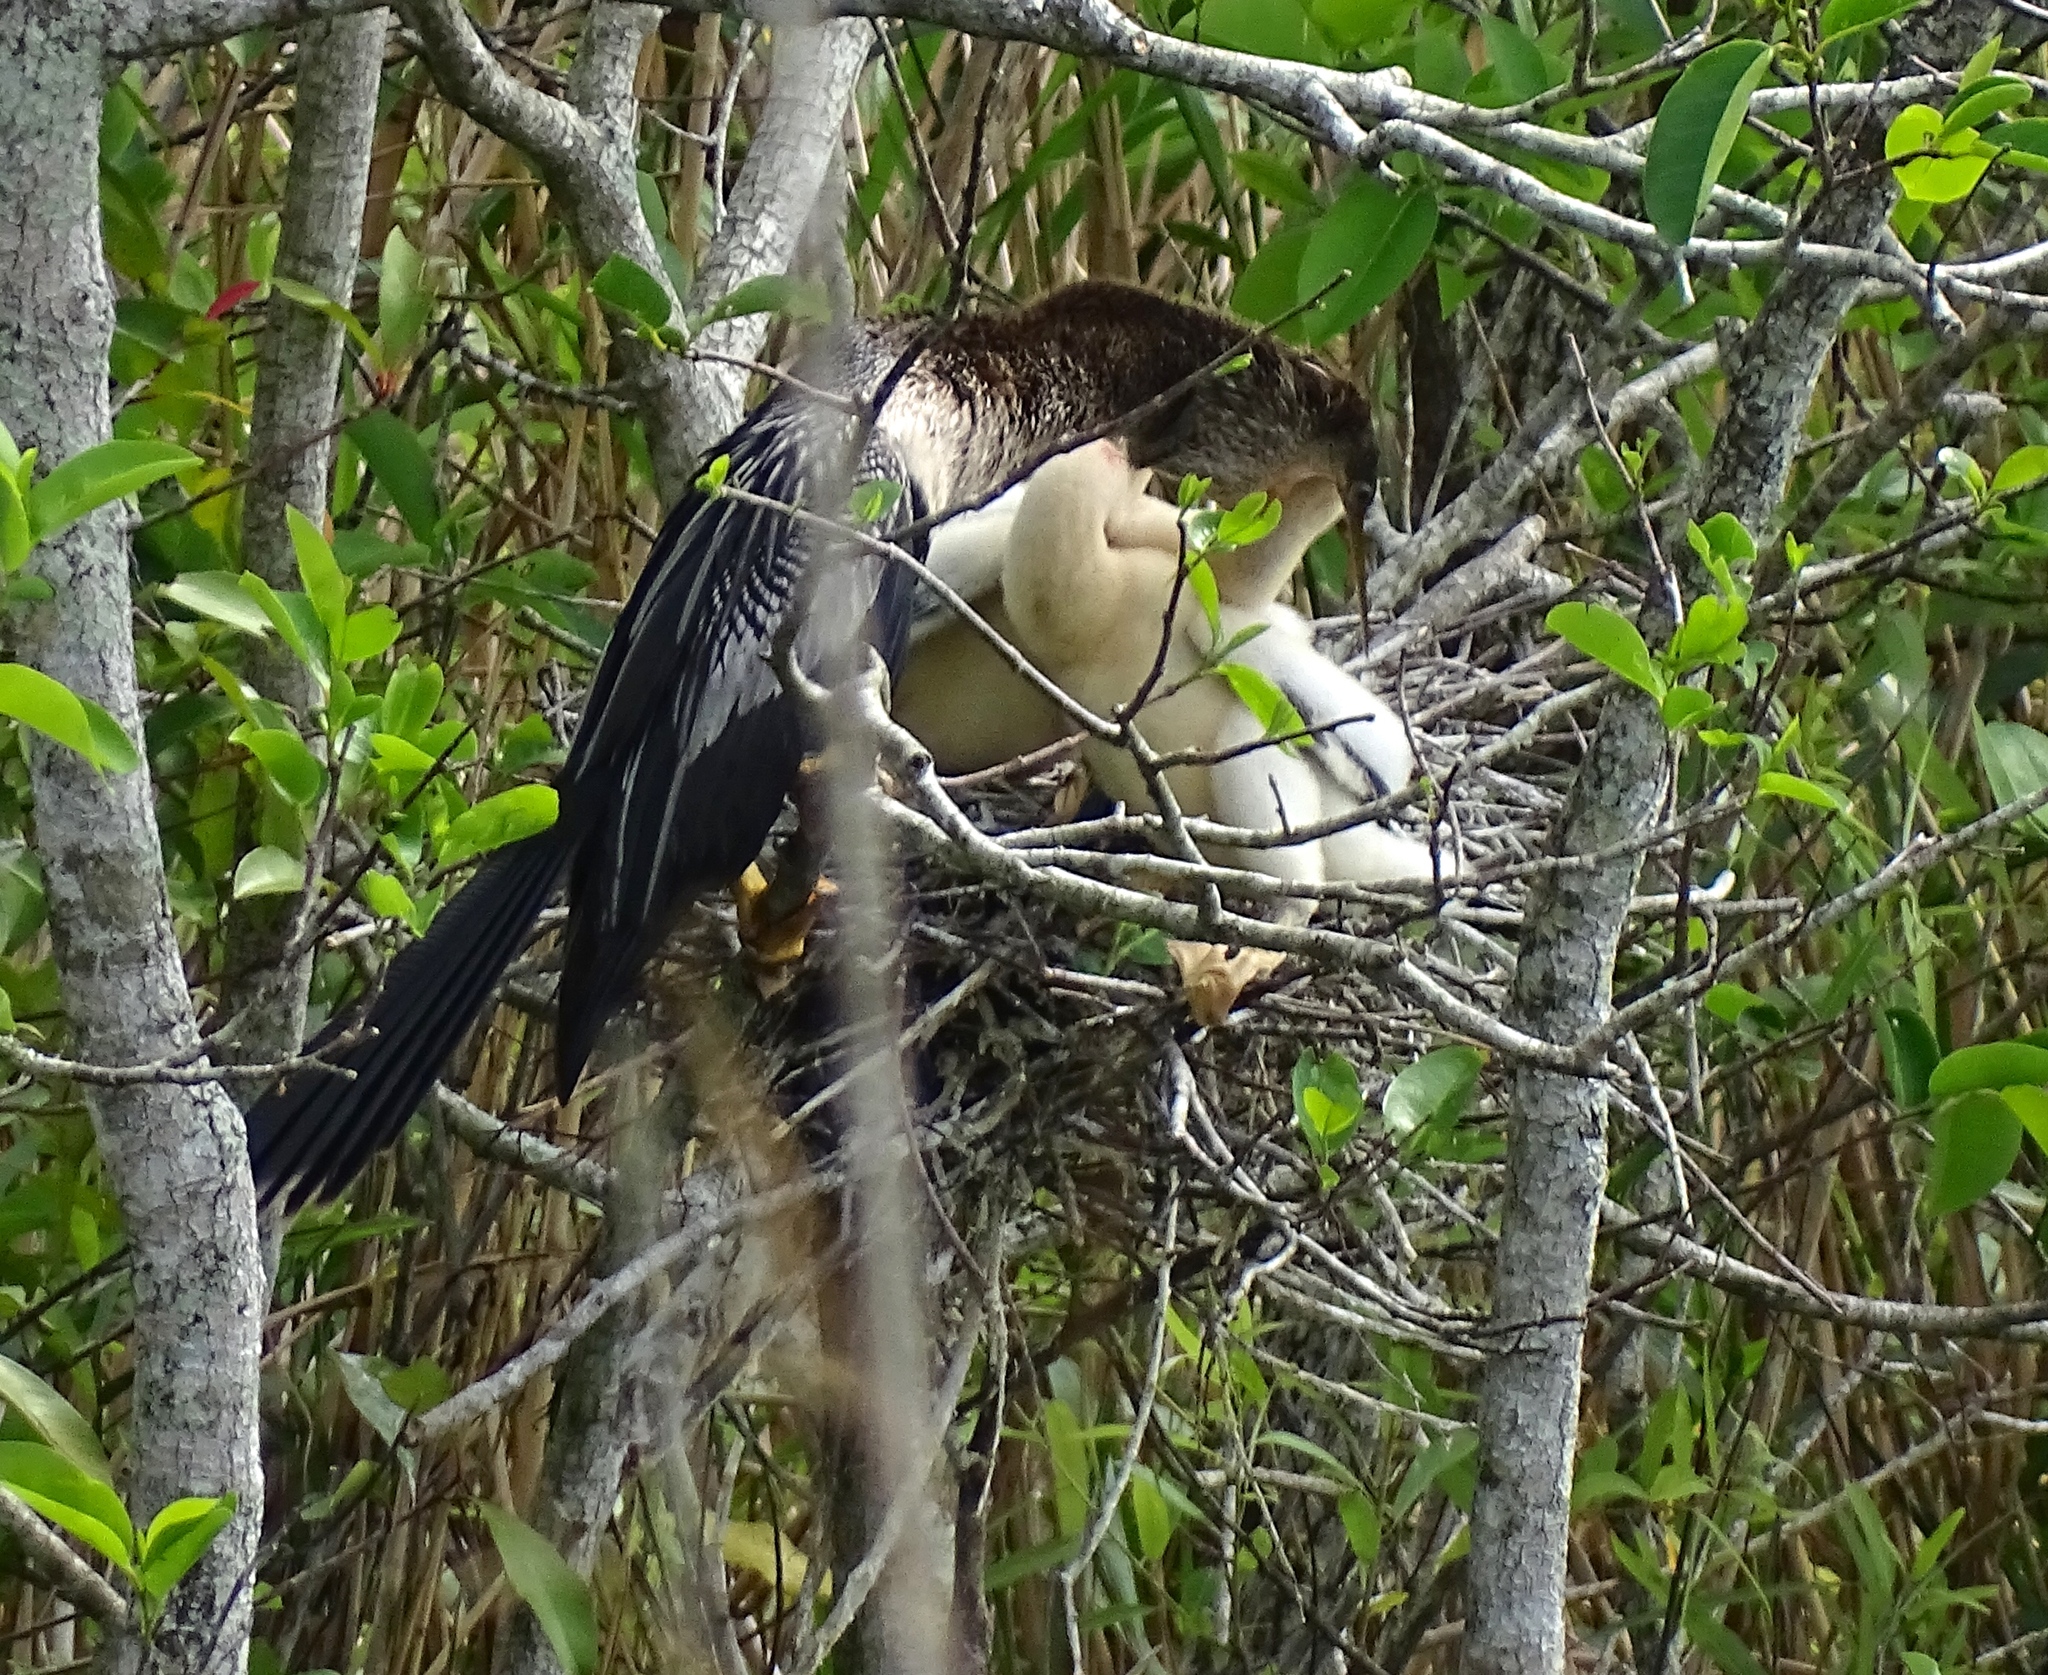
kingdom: Animalia
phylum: Chordata
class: Aves
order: Suliformes
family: Anhingidae
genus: Anhinga
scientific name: Anhinga anhinga
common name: Anhinga
